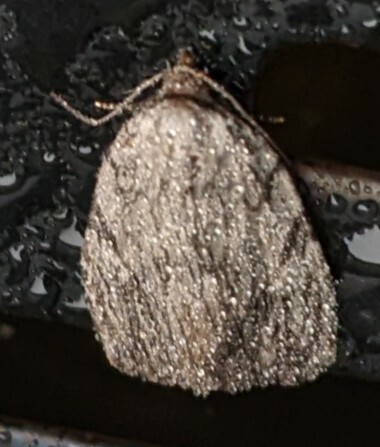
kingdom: Animalia
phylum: Arthropoda
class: Insecta
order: Lepidoptera
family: Noctuidae
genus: Balsa
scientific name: Balsa tristrigella
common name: Three-lined balsa moth
